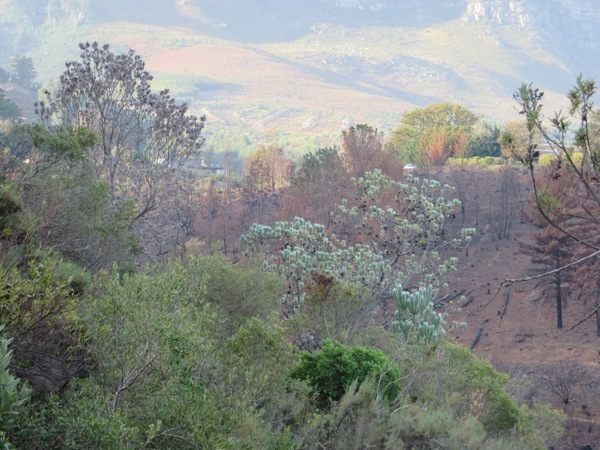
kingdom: Plantae
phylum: Tracheophyta
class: Magnoliopsida
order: Proteales
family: Proteaceae
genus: Leucadendron
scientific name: Leucadendron argenteum
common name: Cape silver tree
